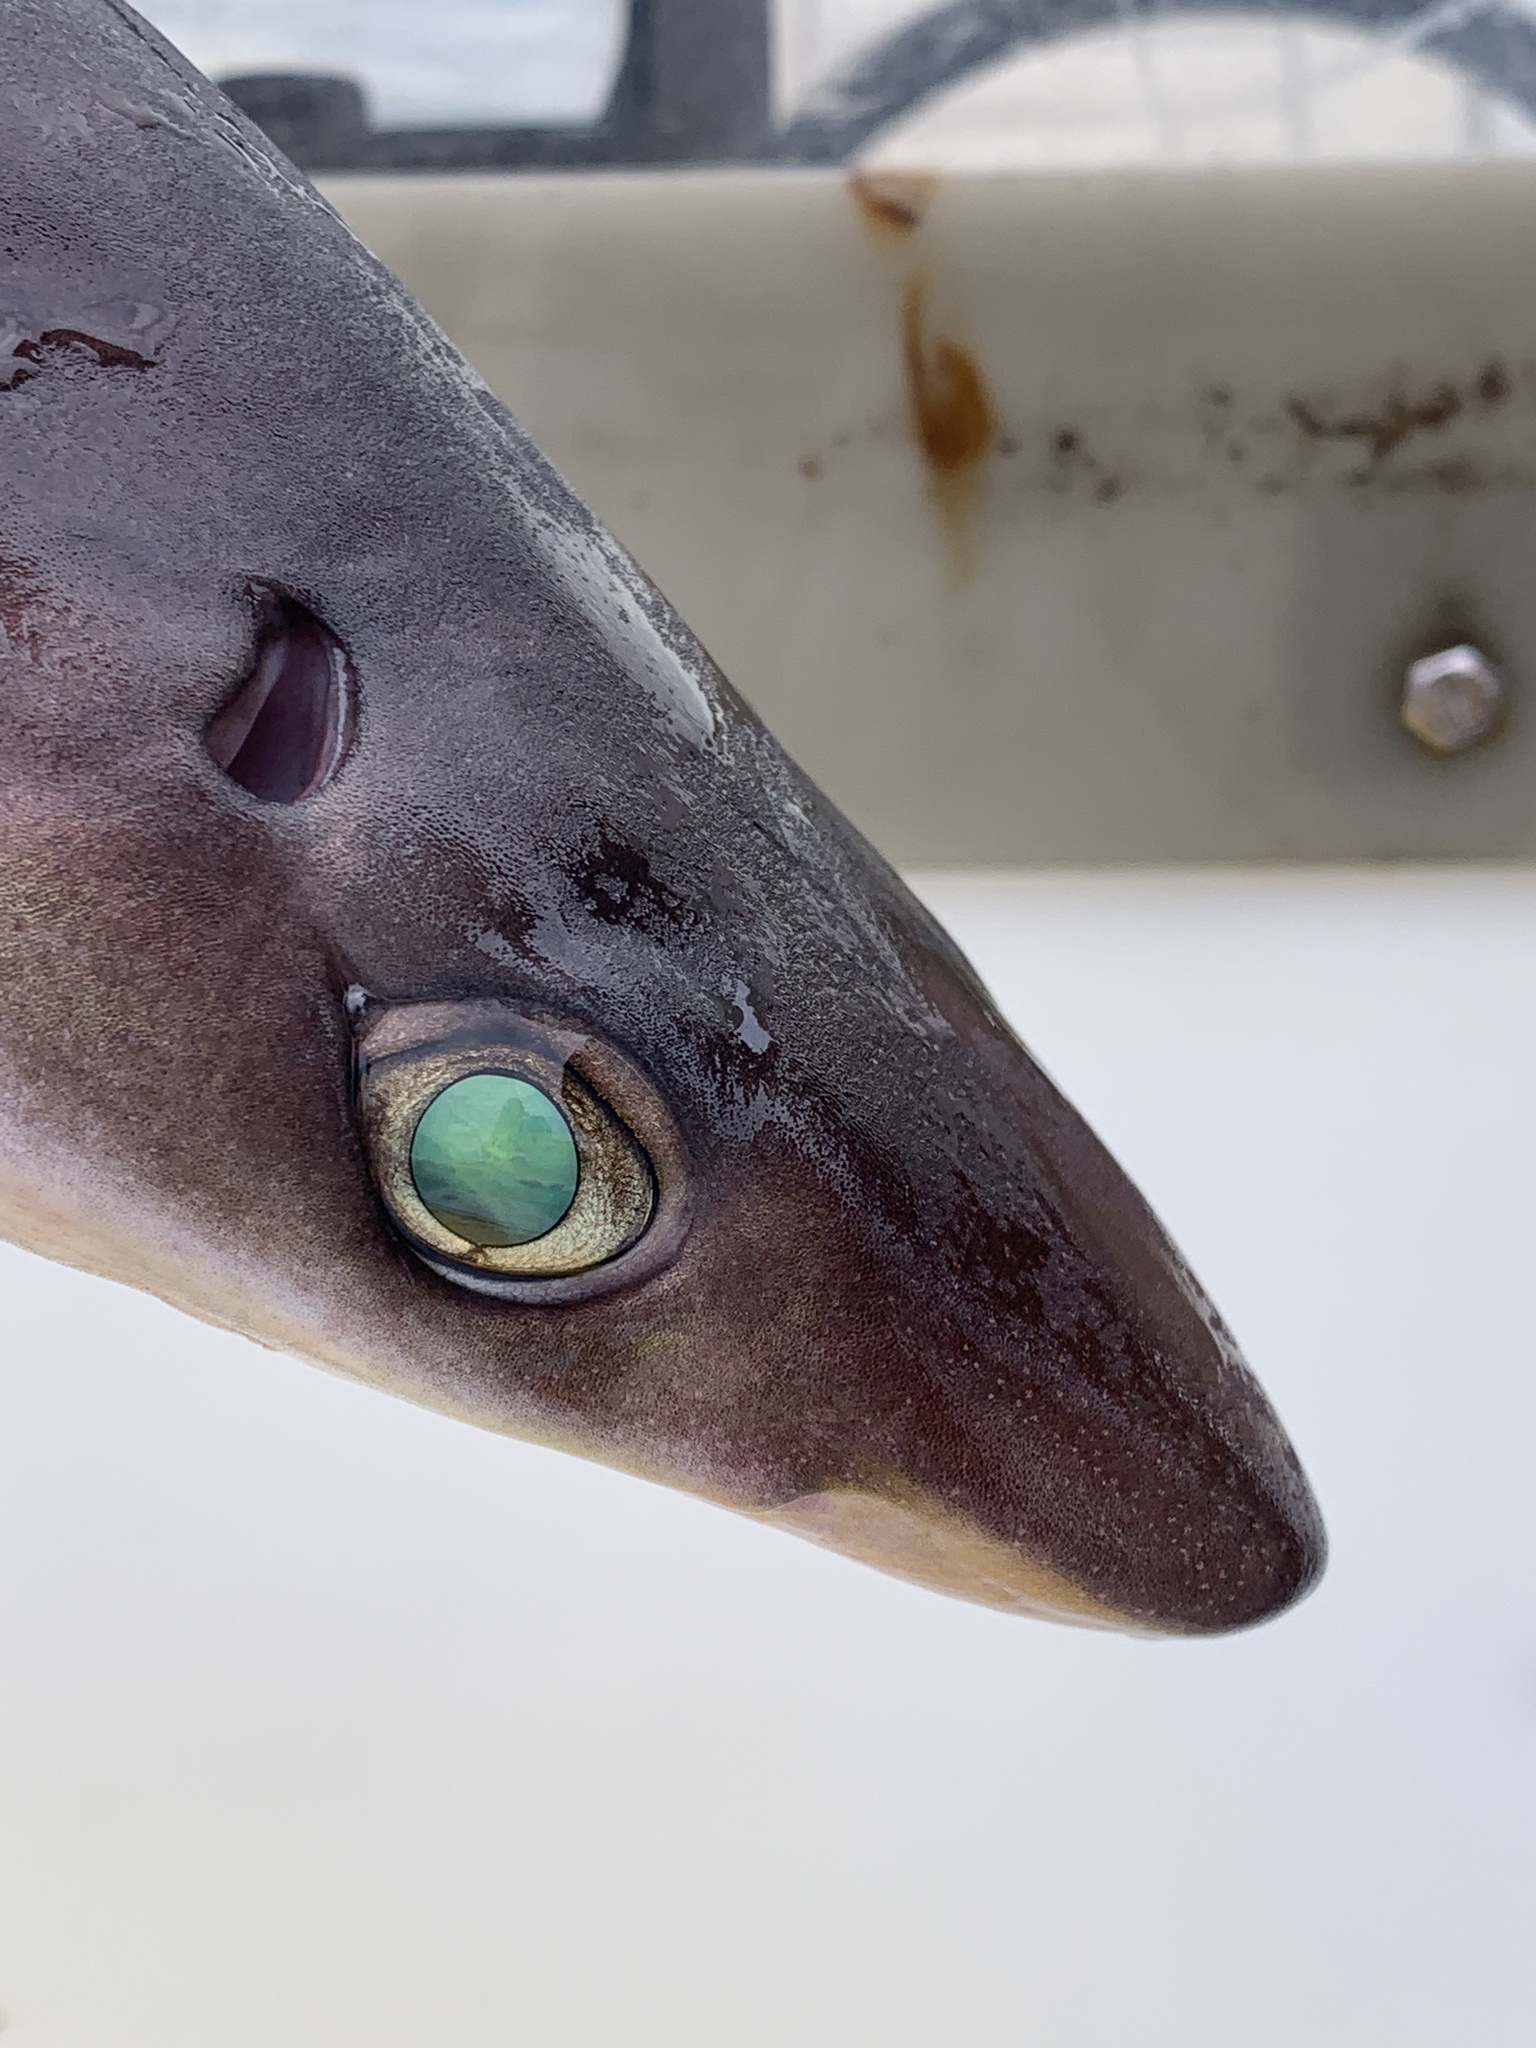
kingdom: Animalia
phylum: Chordata
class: Elasmobranchii
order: Squaliformes
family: Squalidae
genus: Squalus
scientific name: Squalus suckleyi
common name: Spiny dogfish
